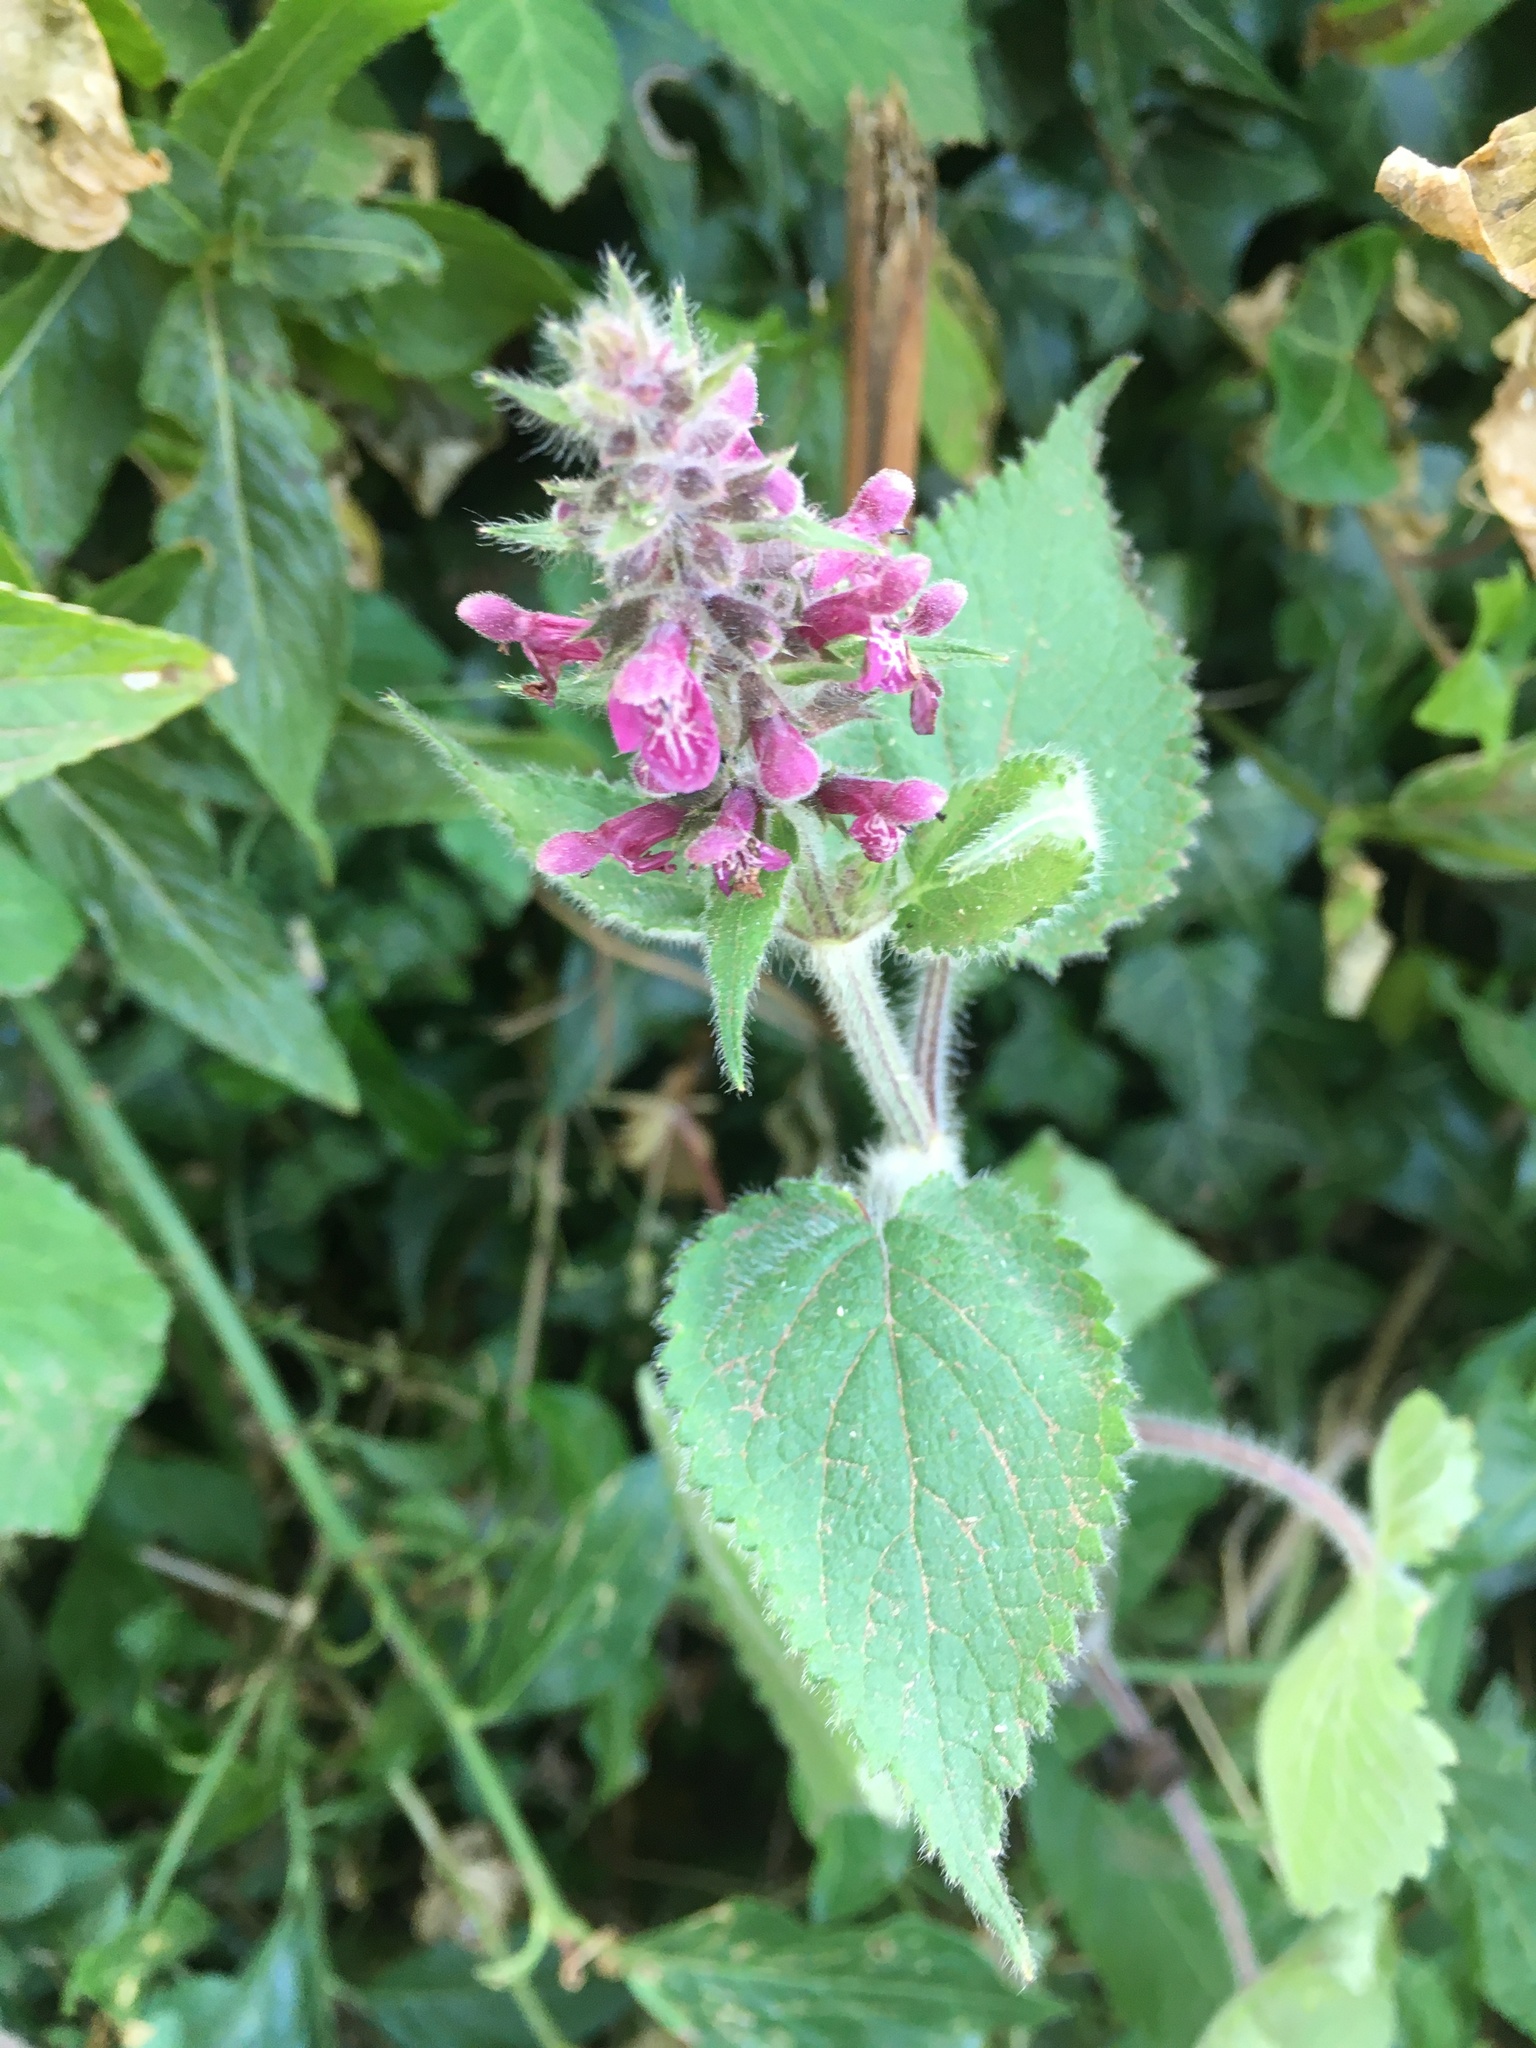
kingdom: Plantae
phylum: Tracheophyta
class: Magnoliopsida
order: Lamiales
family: Lamiaceae
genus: Stachys
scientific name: Stachys sylvatica
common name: Hedge woundwort
